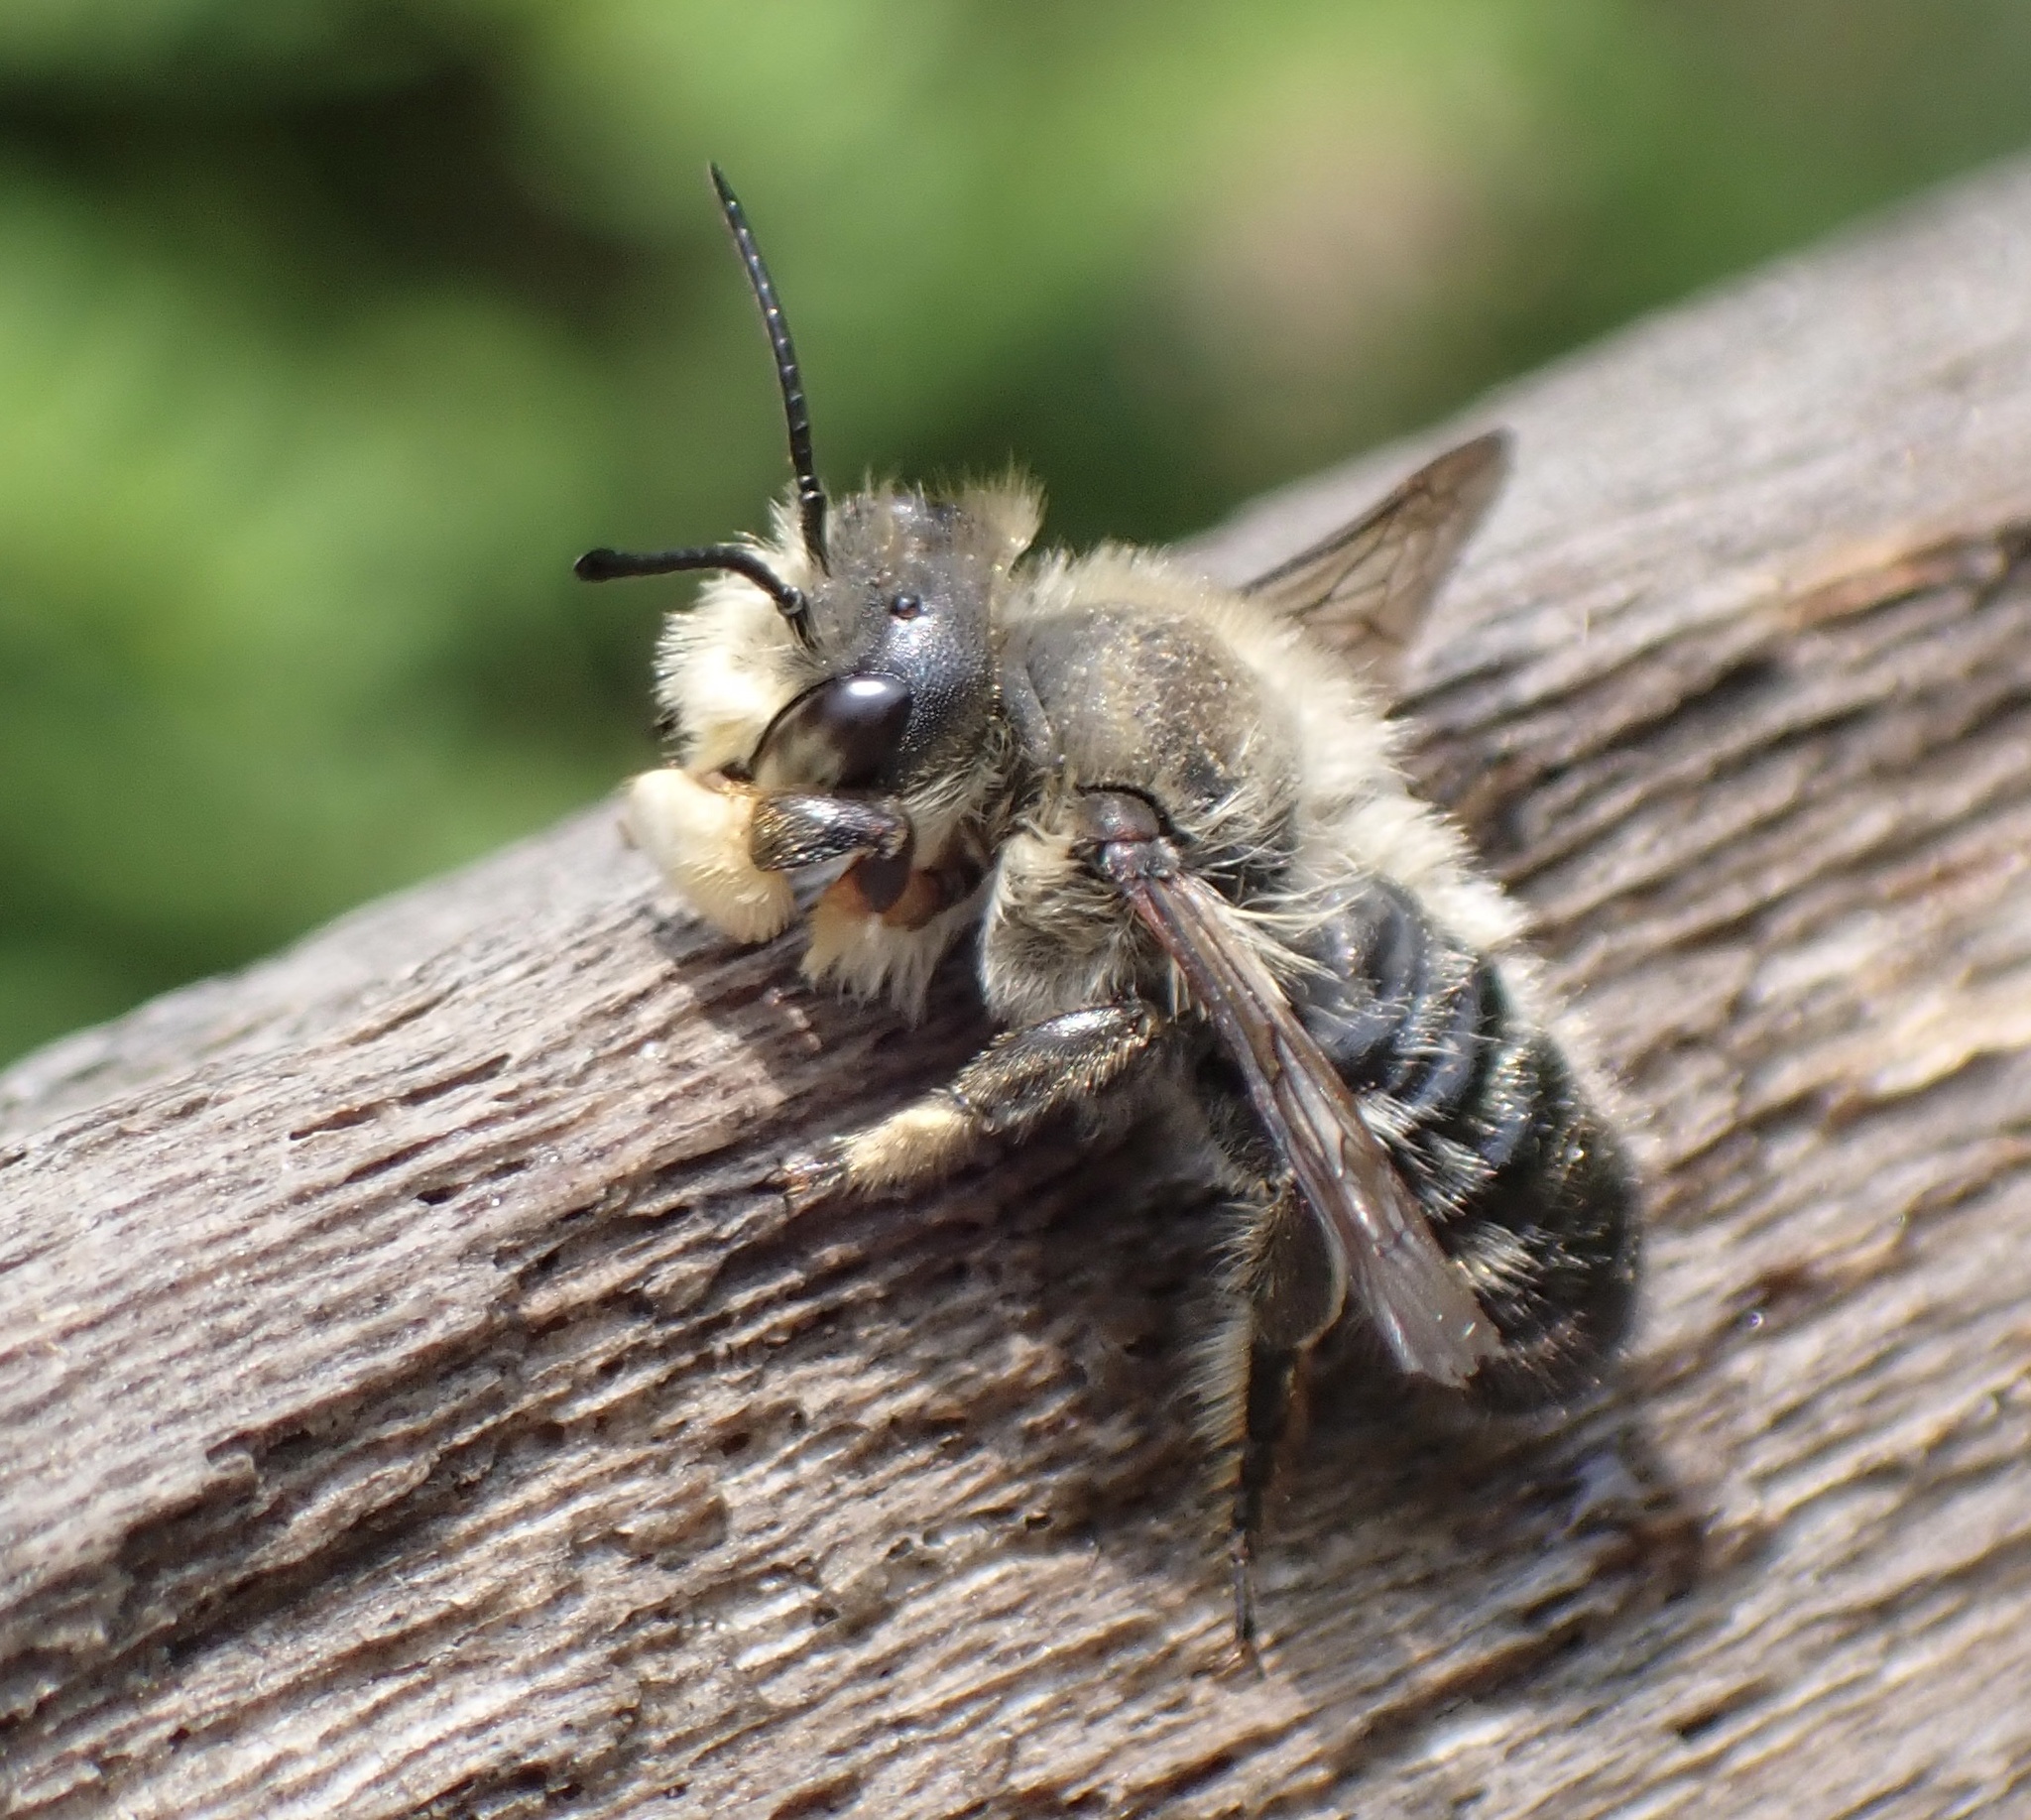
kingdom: Animalia
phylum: Arthropoda
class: Insecta
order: Hymenoptera
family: Megachilidae
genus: Megachile
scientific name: Megachile willughbiella
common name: Willughby's leafcutter bee
